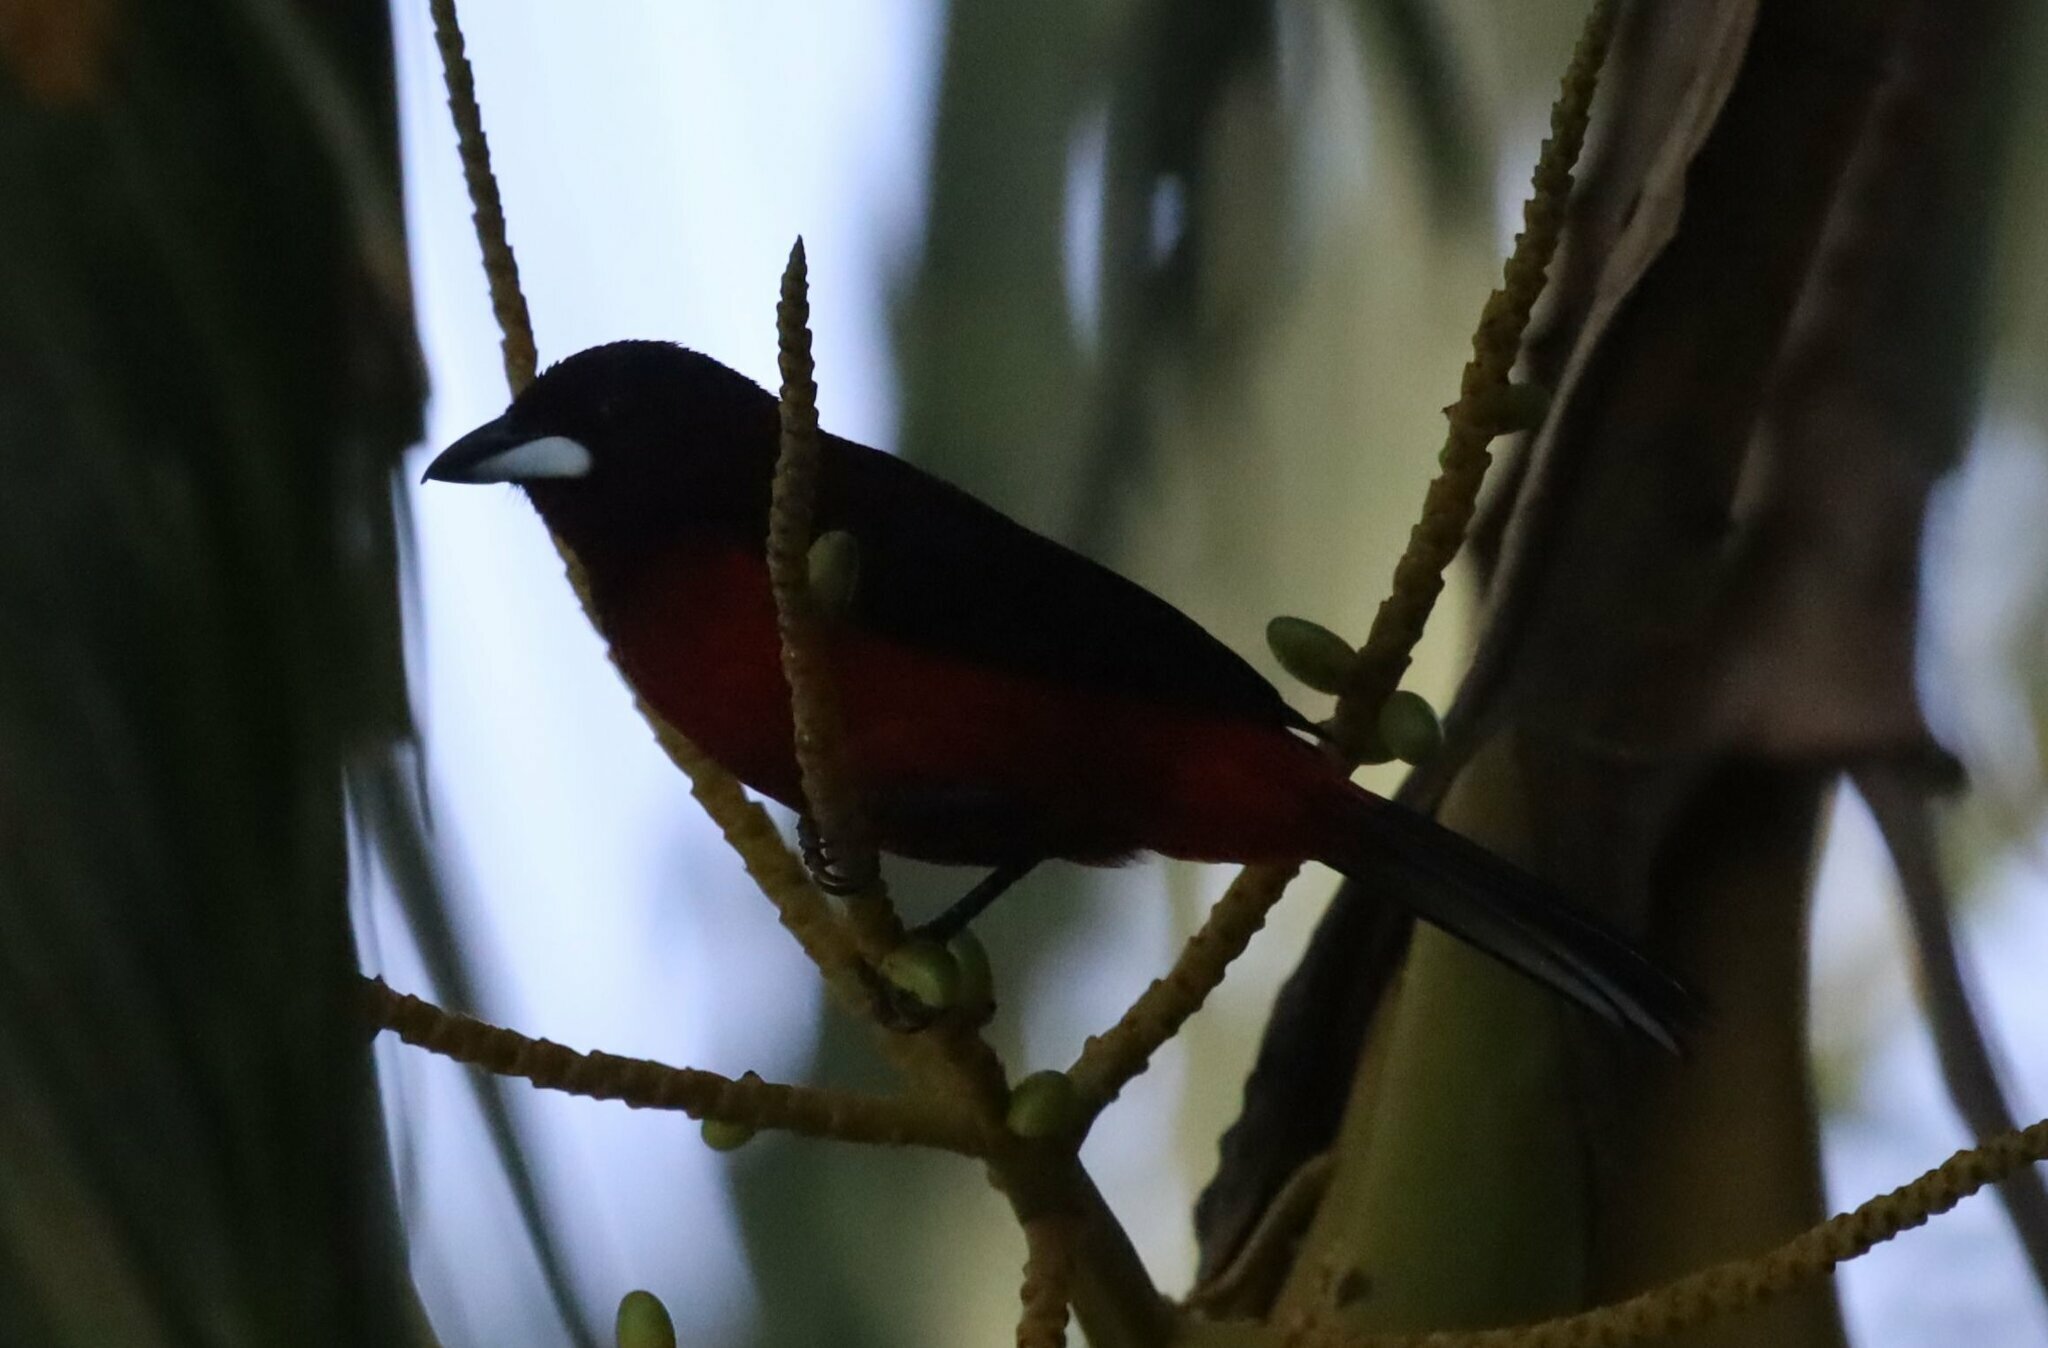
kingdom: Animalia
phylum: Chordata
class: Aves
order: Passeriformes
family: Thraupidae
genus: Ramphocelus
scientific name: Ramphocelus dimidiatus
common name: Crimson-backed tanager
